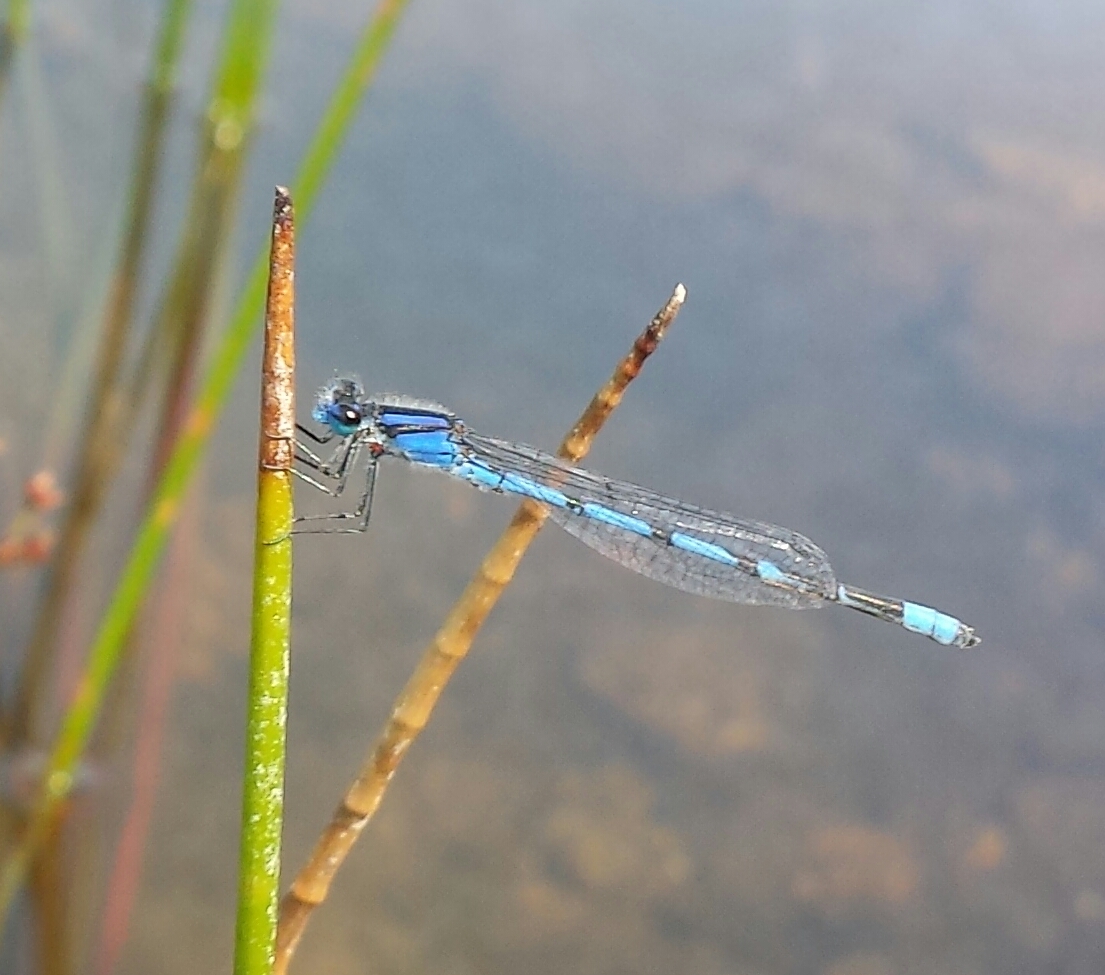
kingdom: Animalia
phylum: Arthropoda
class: Insecta
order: Odonata
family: Coenagrionidae
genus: Enallagma
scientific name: Enallagma civile
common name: Damselfly
